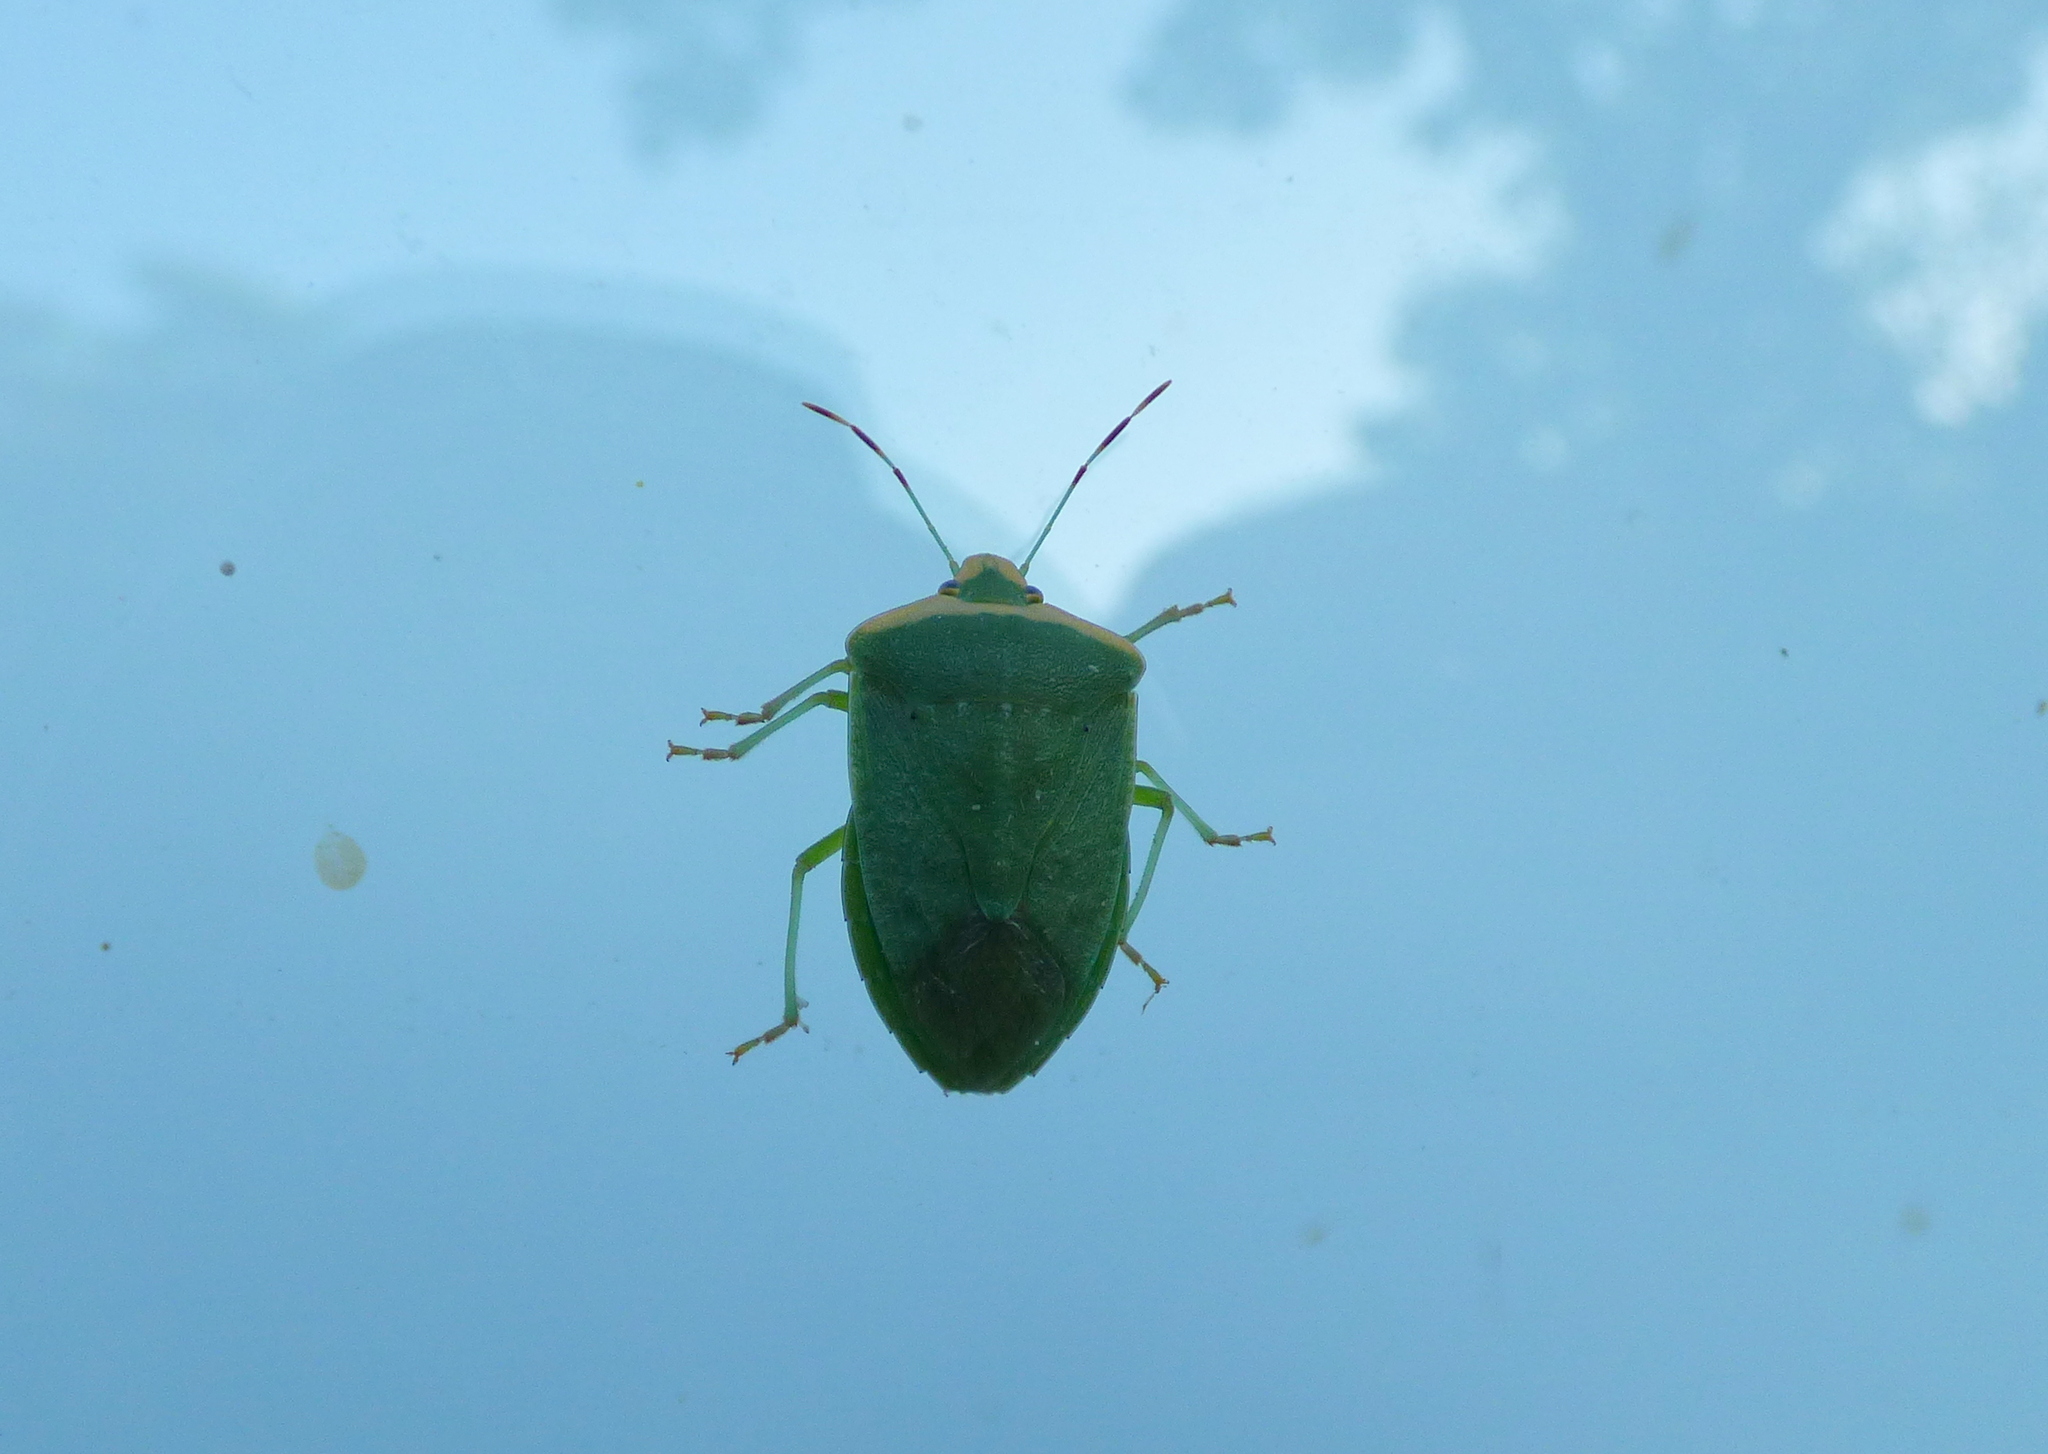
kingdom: Animalia
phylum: Arthropoda
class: Insecta
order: Hemiptera
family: Pentatomidae
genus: Nezara
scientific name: Nezara viridula
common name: Southern green stink bug
